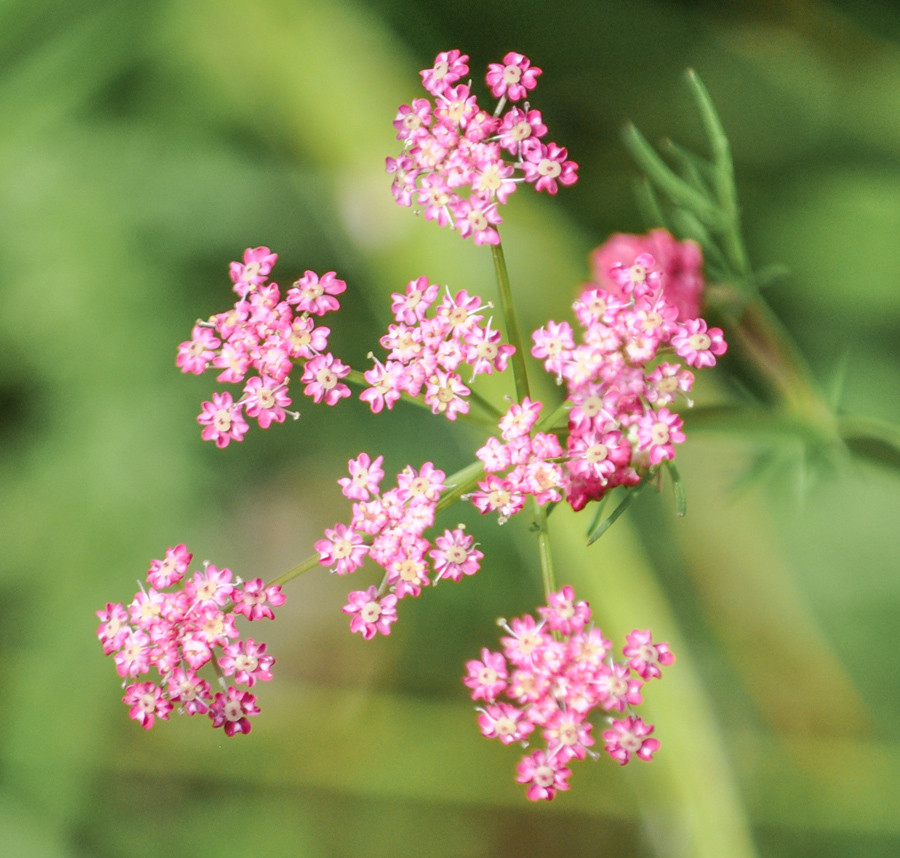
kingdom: Plantae
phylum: Tracheophyta
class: Magnoliopsida
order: Apiales
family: Apiaceae
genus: Carum
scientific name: Carum carvi
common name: Caraway
